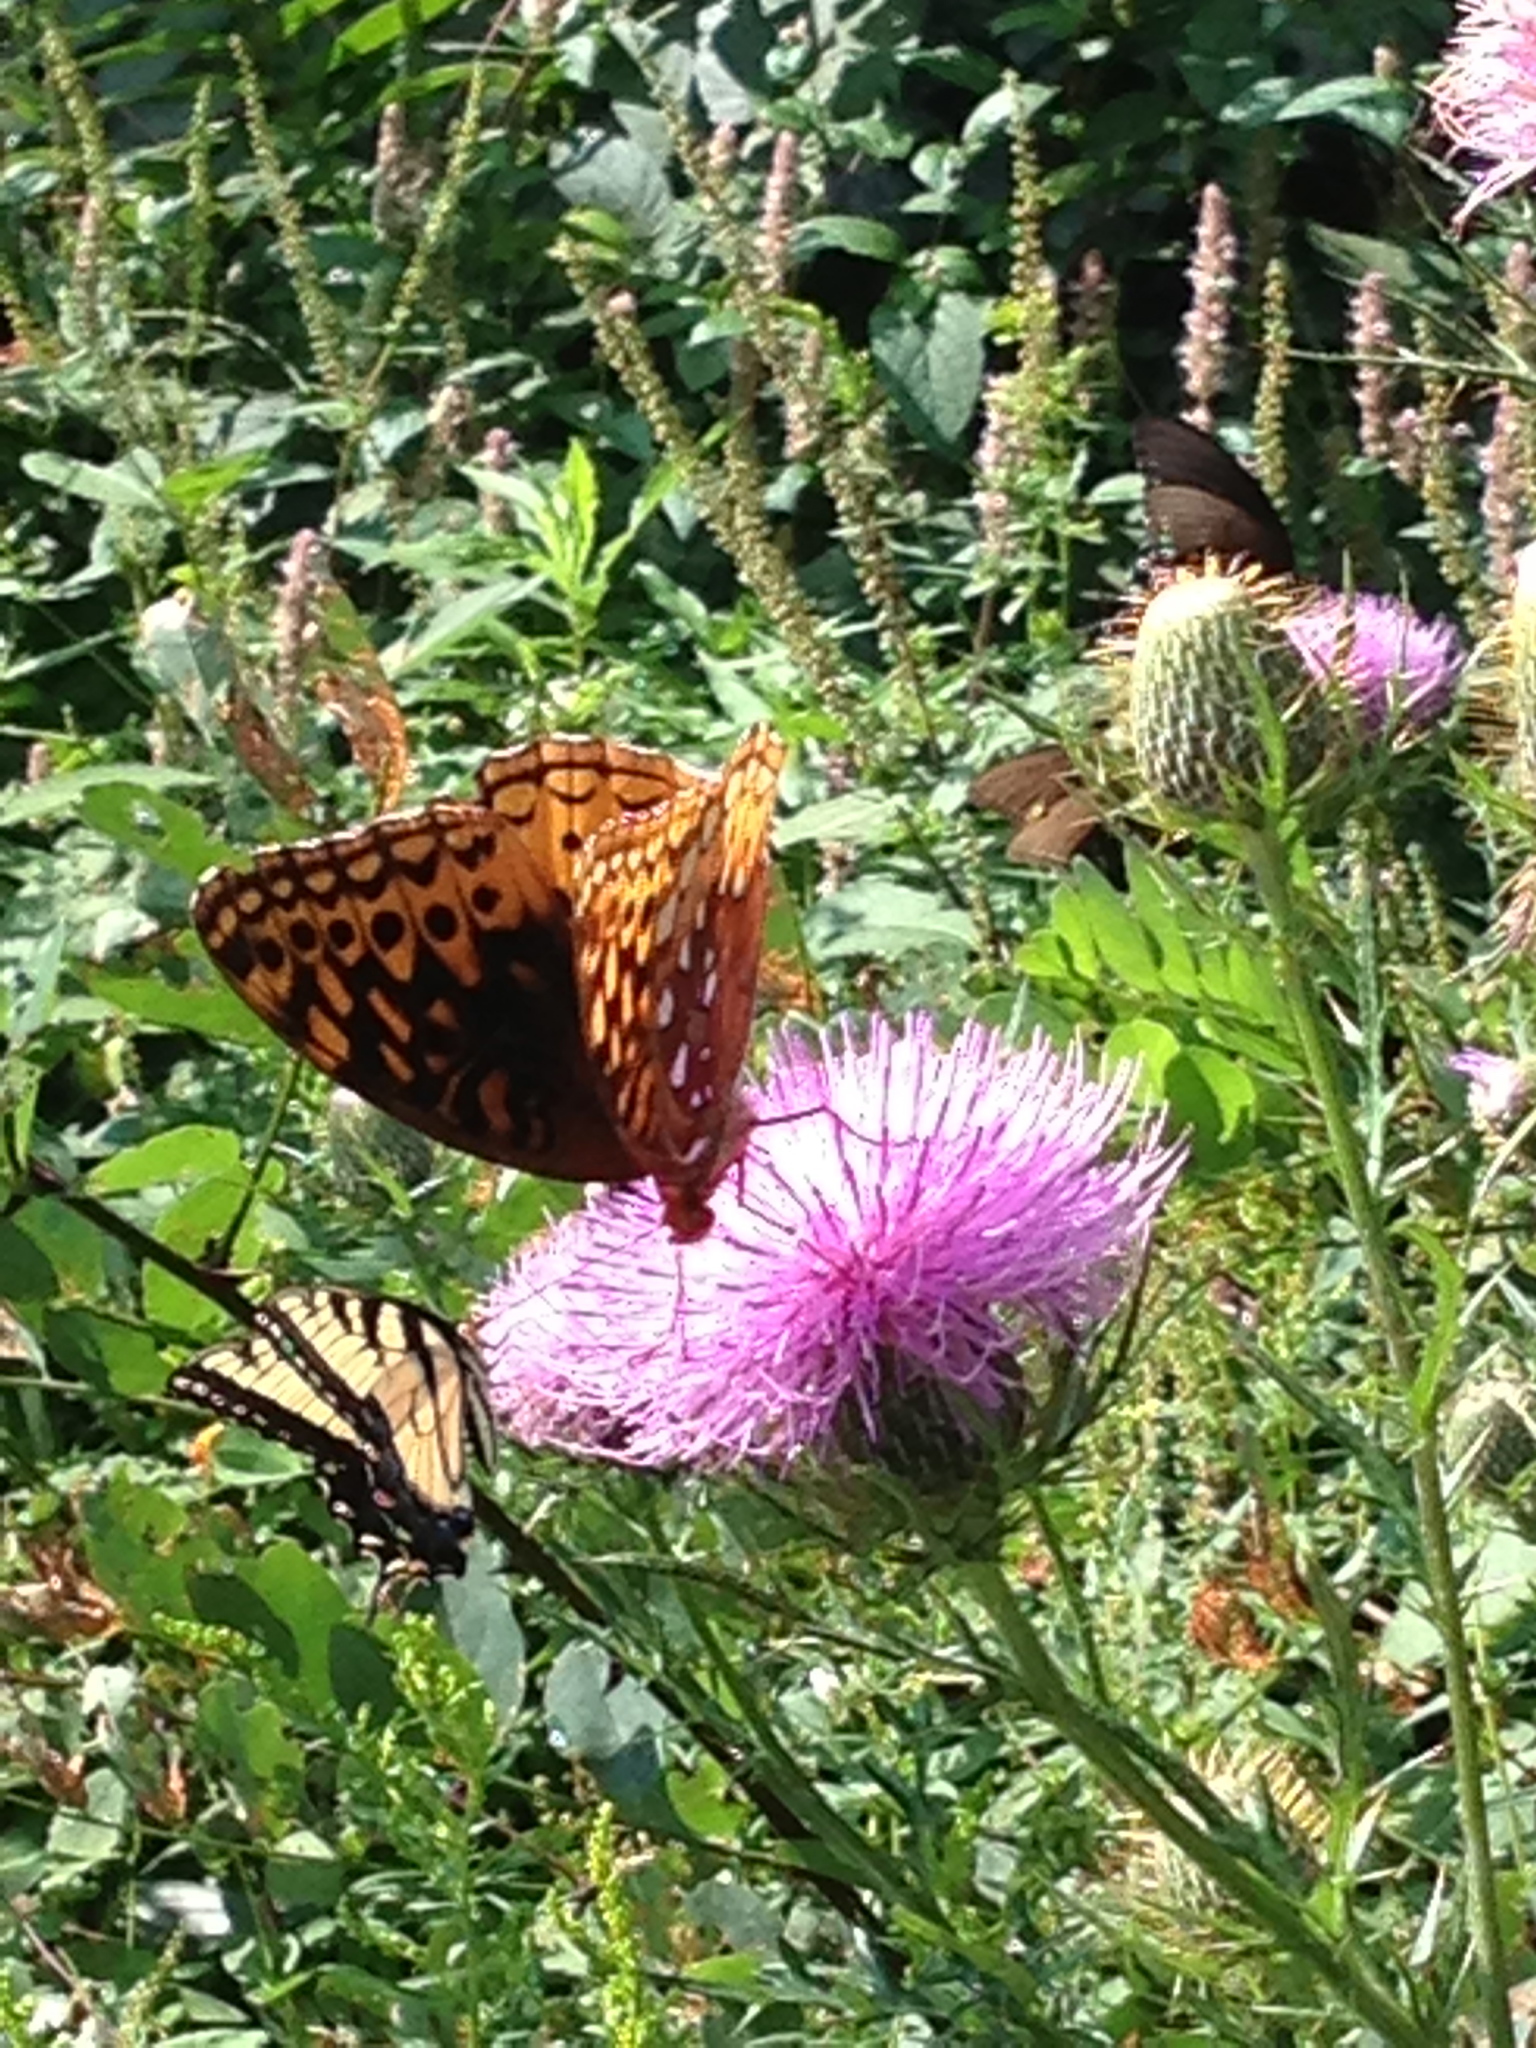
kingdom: Animalia
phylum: Arthropoda
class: Insecta
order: Lepidoptera
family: Nymphalidae
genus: Speyeria
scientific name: Speyeria cybele
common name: Great spangled fritillary
